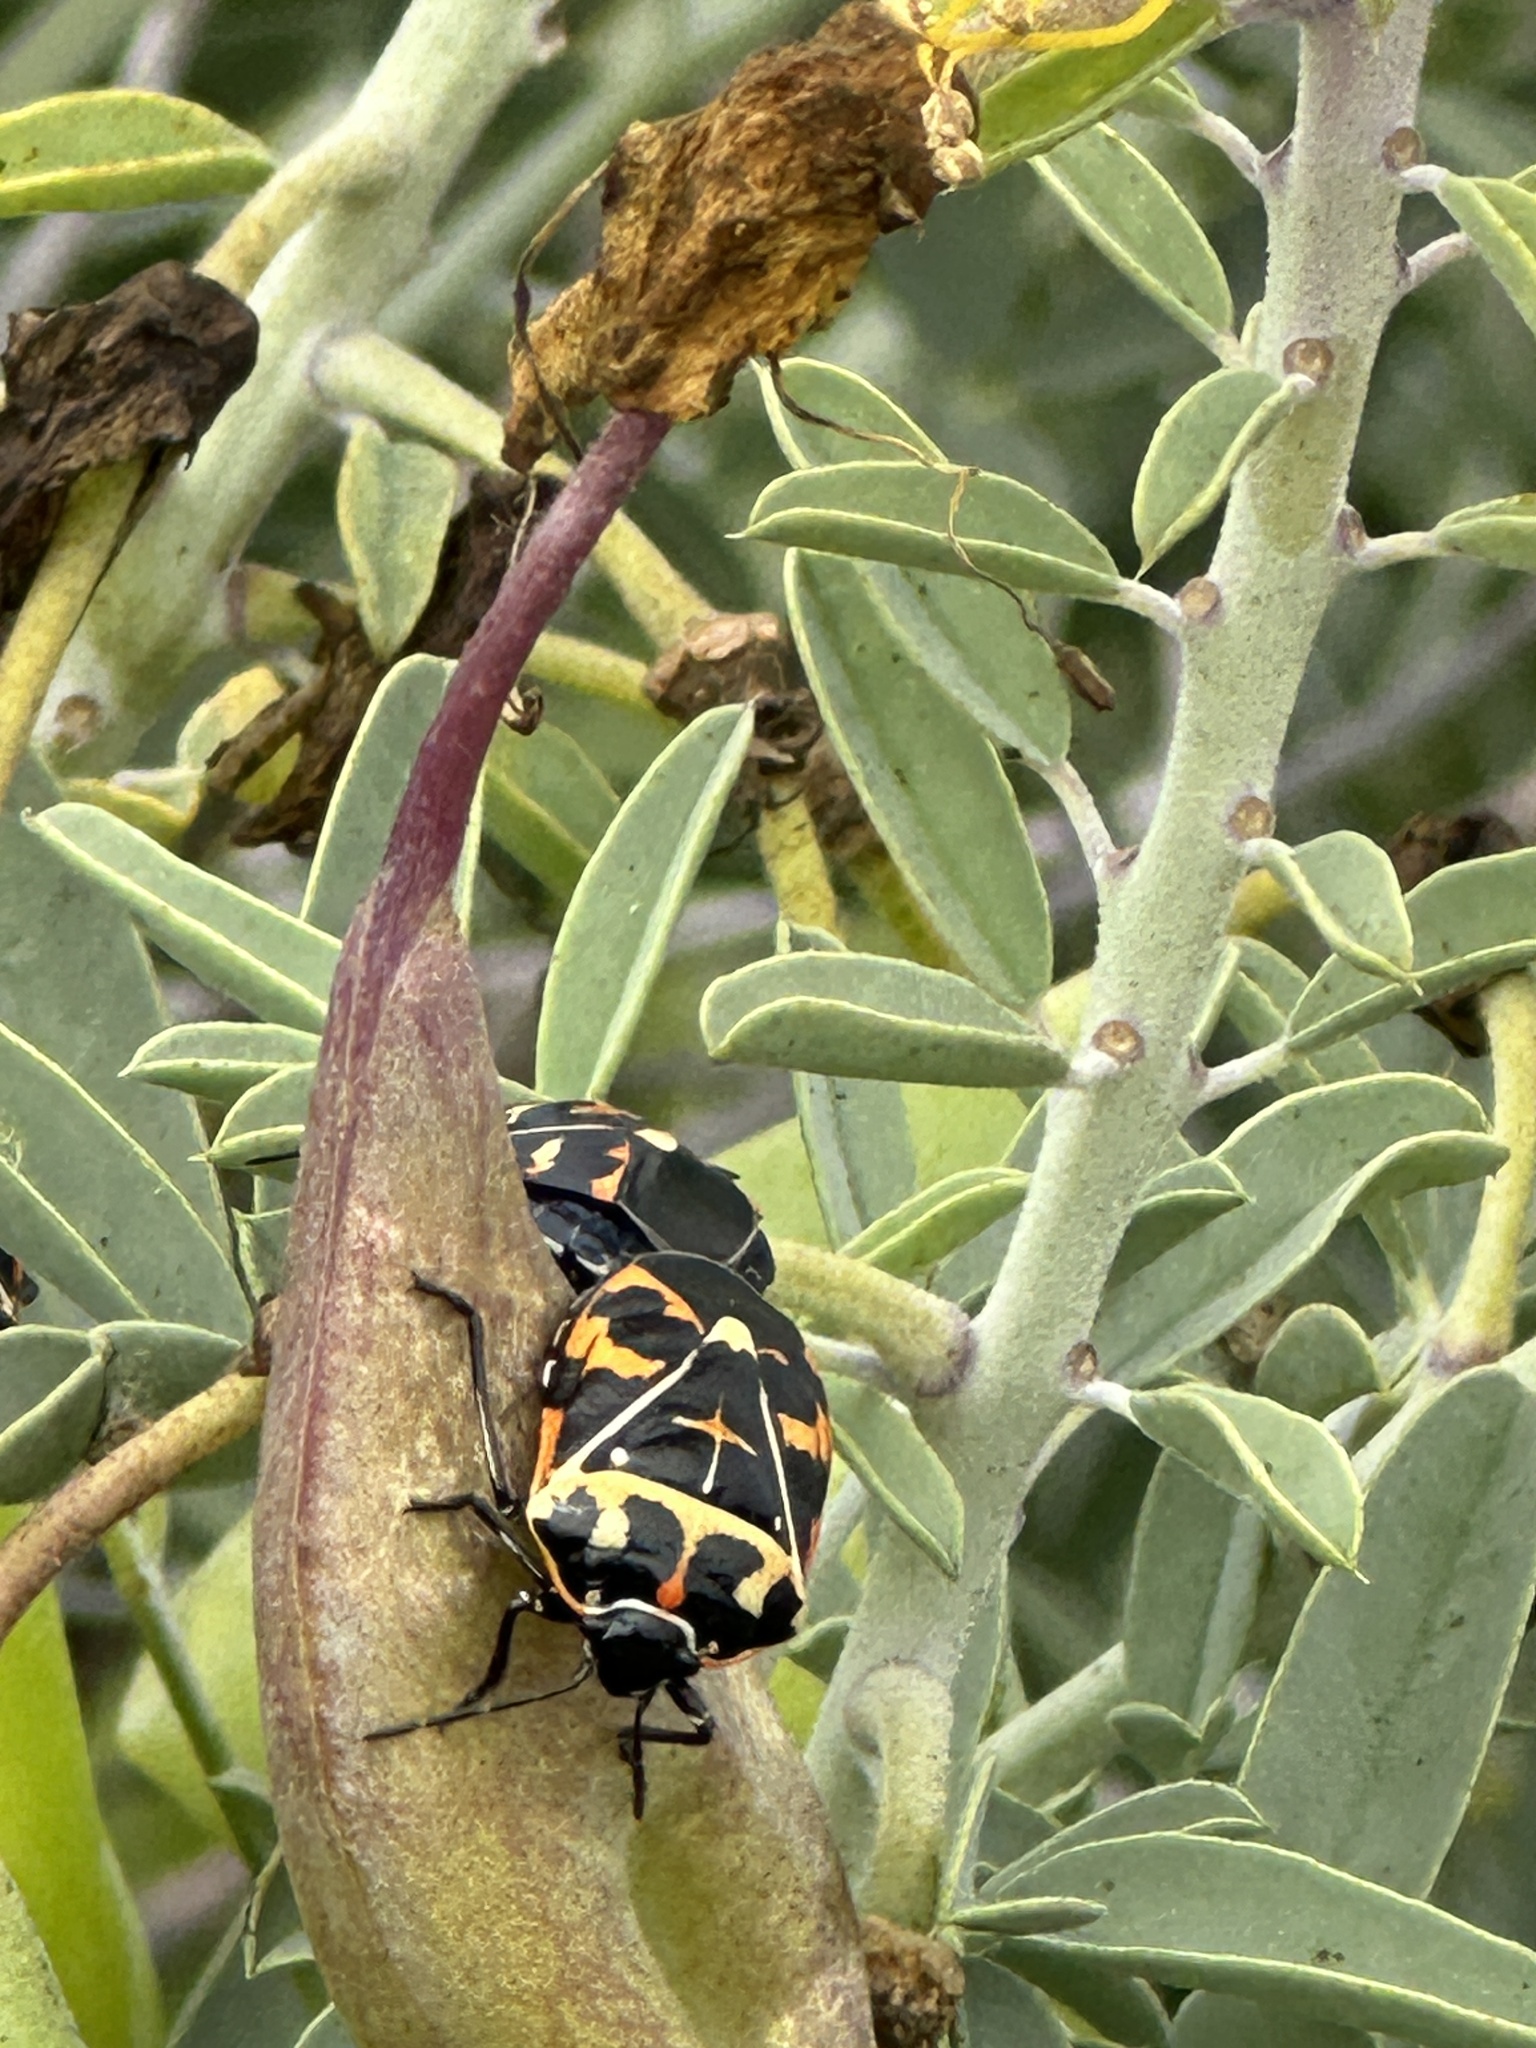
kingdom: Animalia
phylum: Arthropoda
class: Insecta
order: Hemiptera
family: Pentatomidae
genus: Murgantia
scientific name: Murgantia histrionica
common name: Harlequin bug
